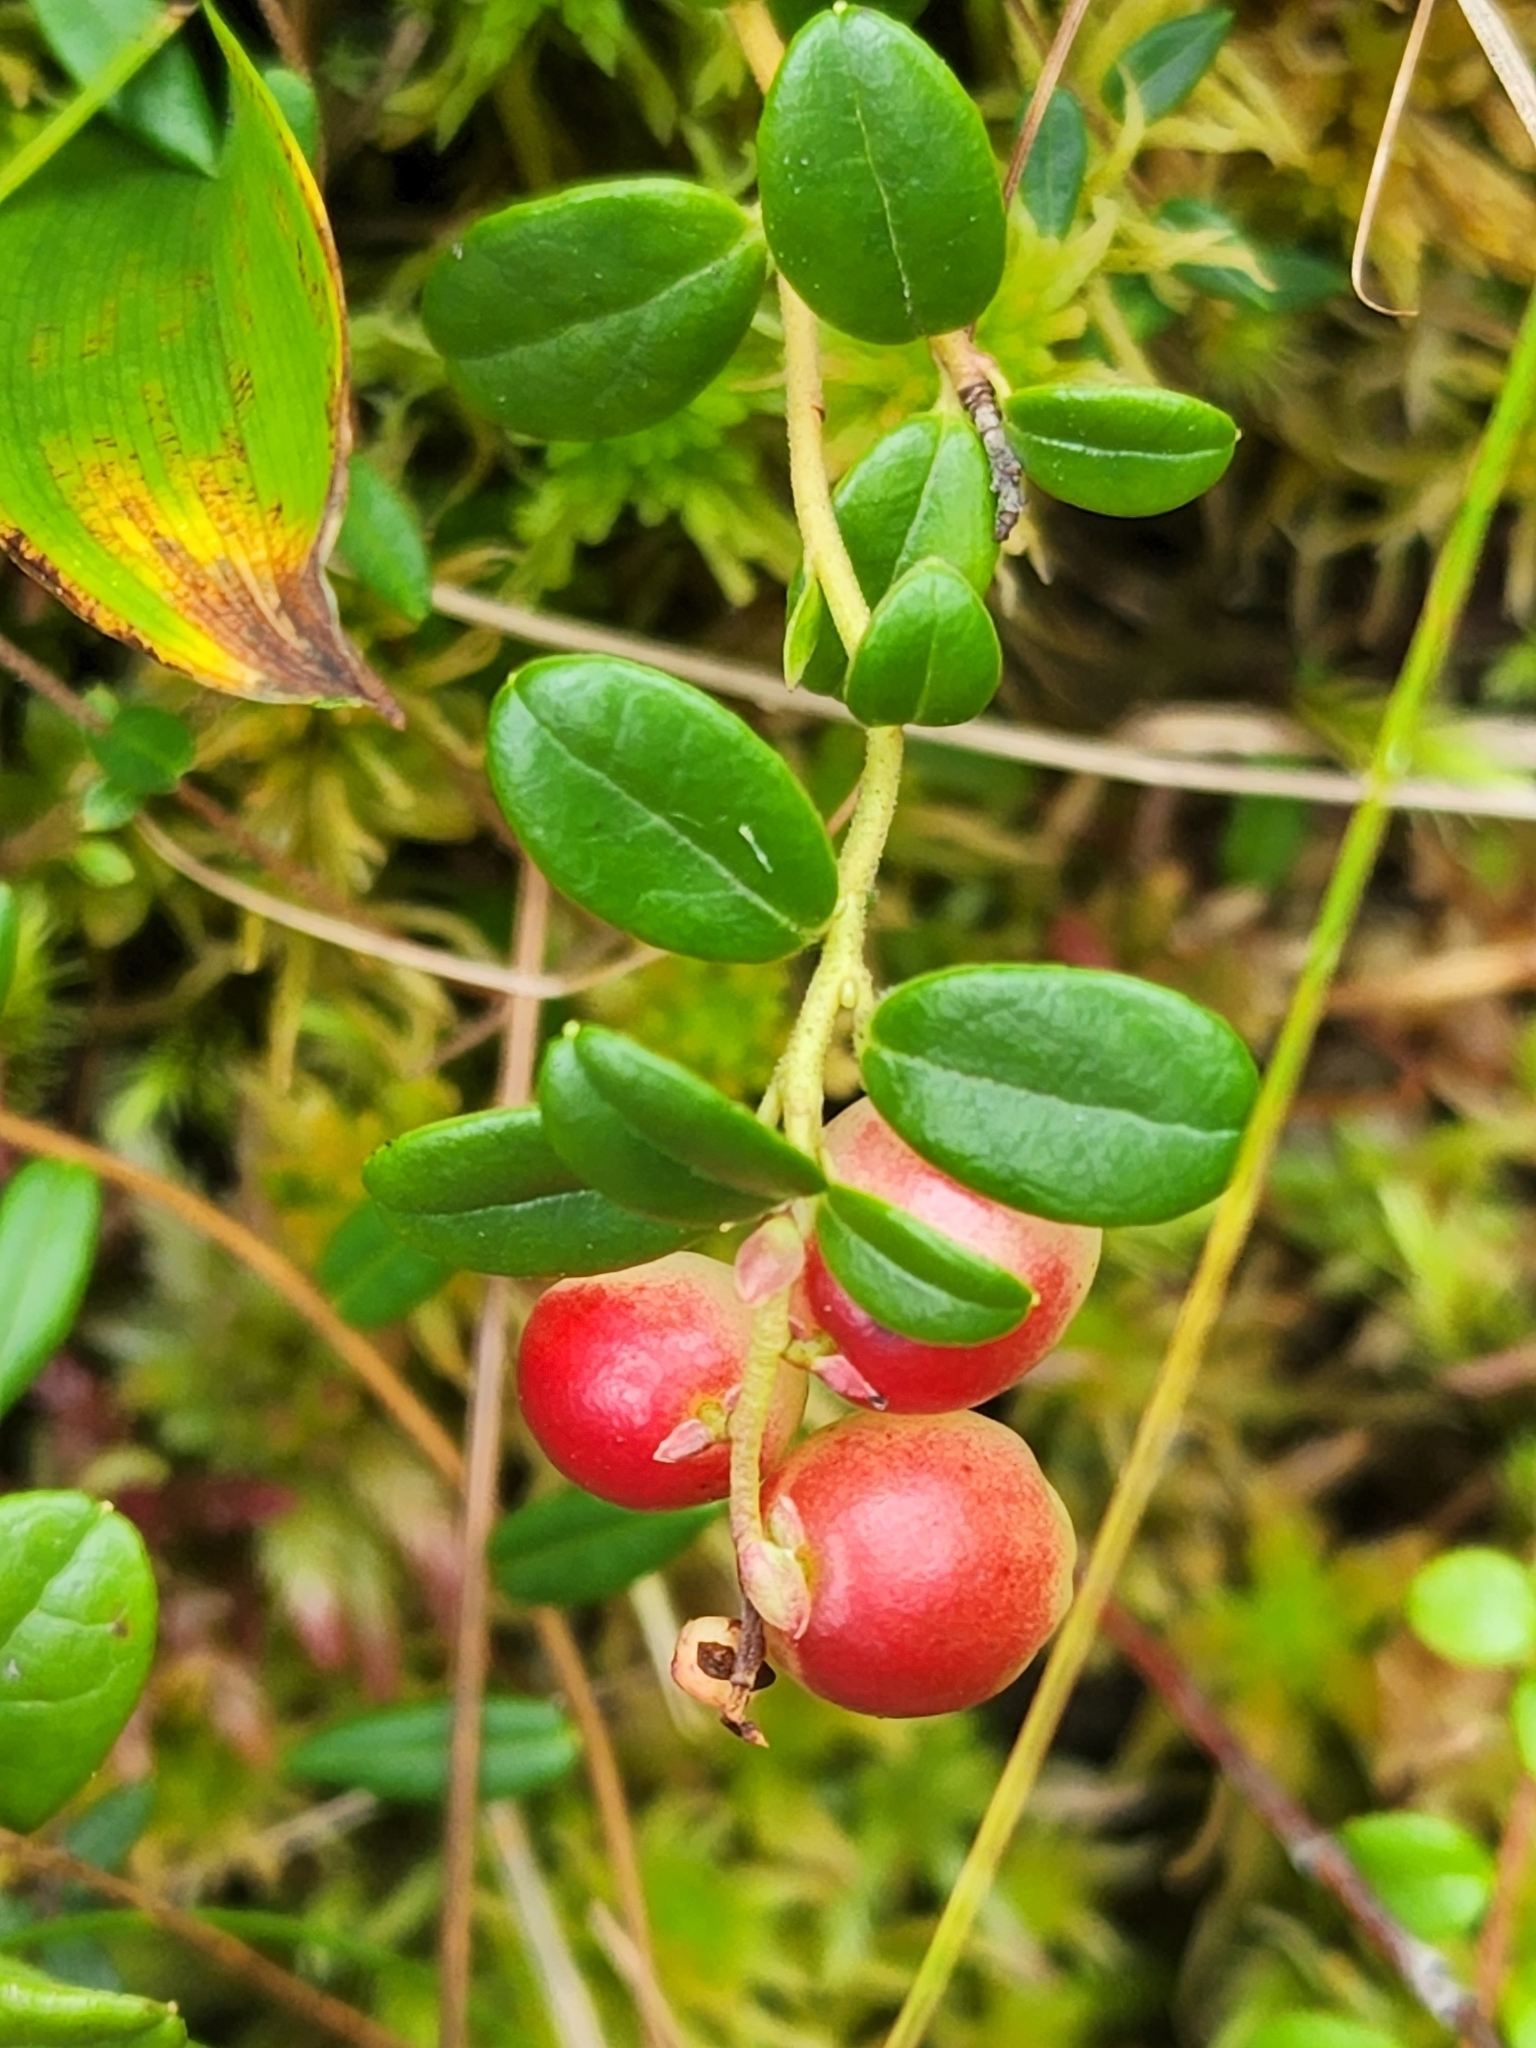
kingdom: Plantae
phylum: Tracheophyta
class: Magnoliopsida
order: Ericales
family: Ericaceae
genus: Vaccinium
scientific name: Vaccinium vitis-idaea
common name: Cowberry
